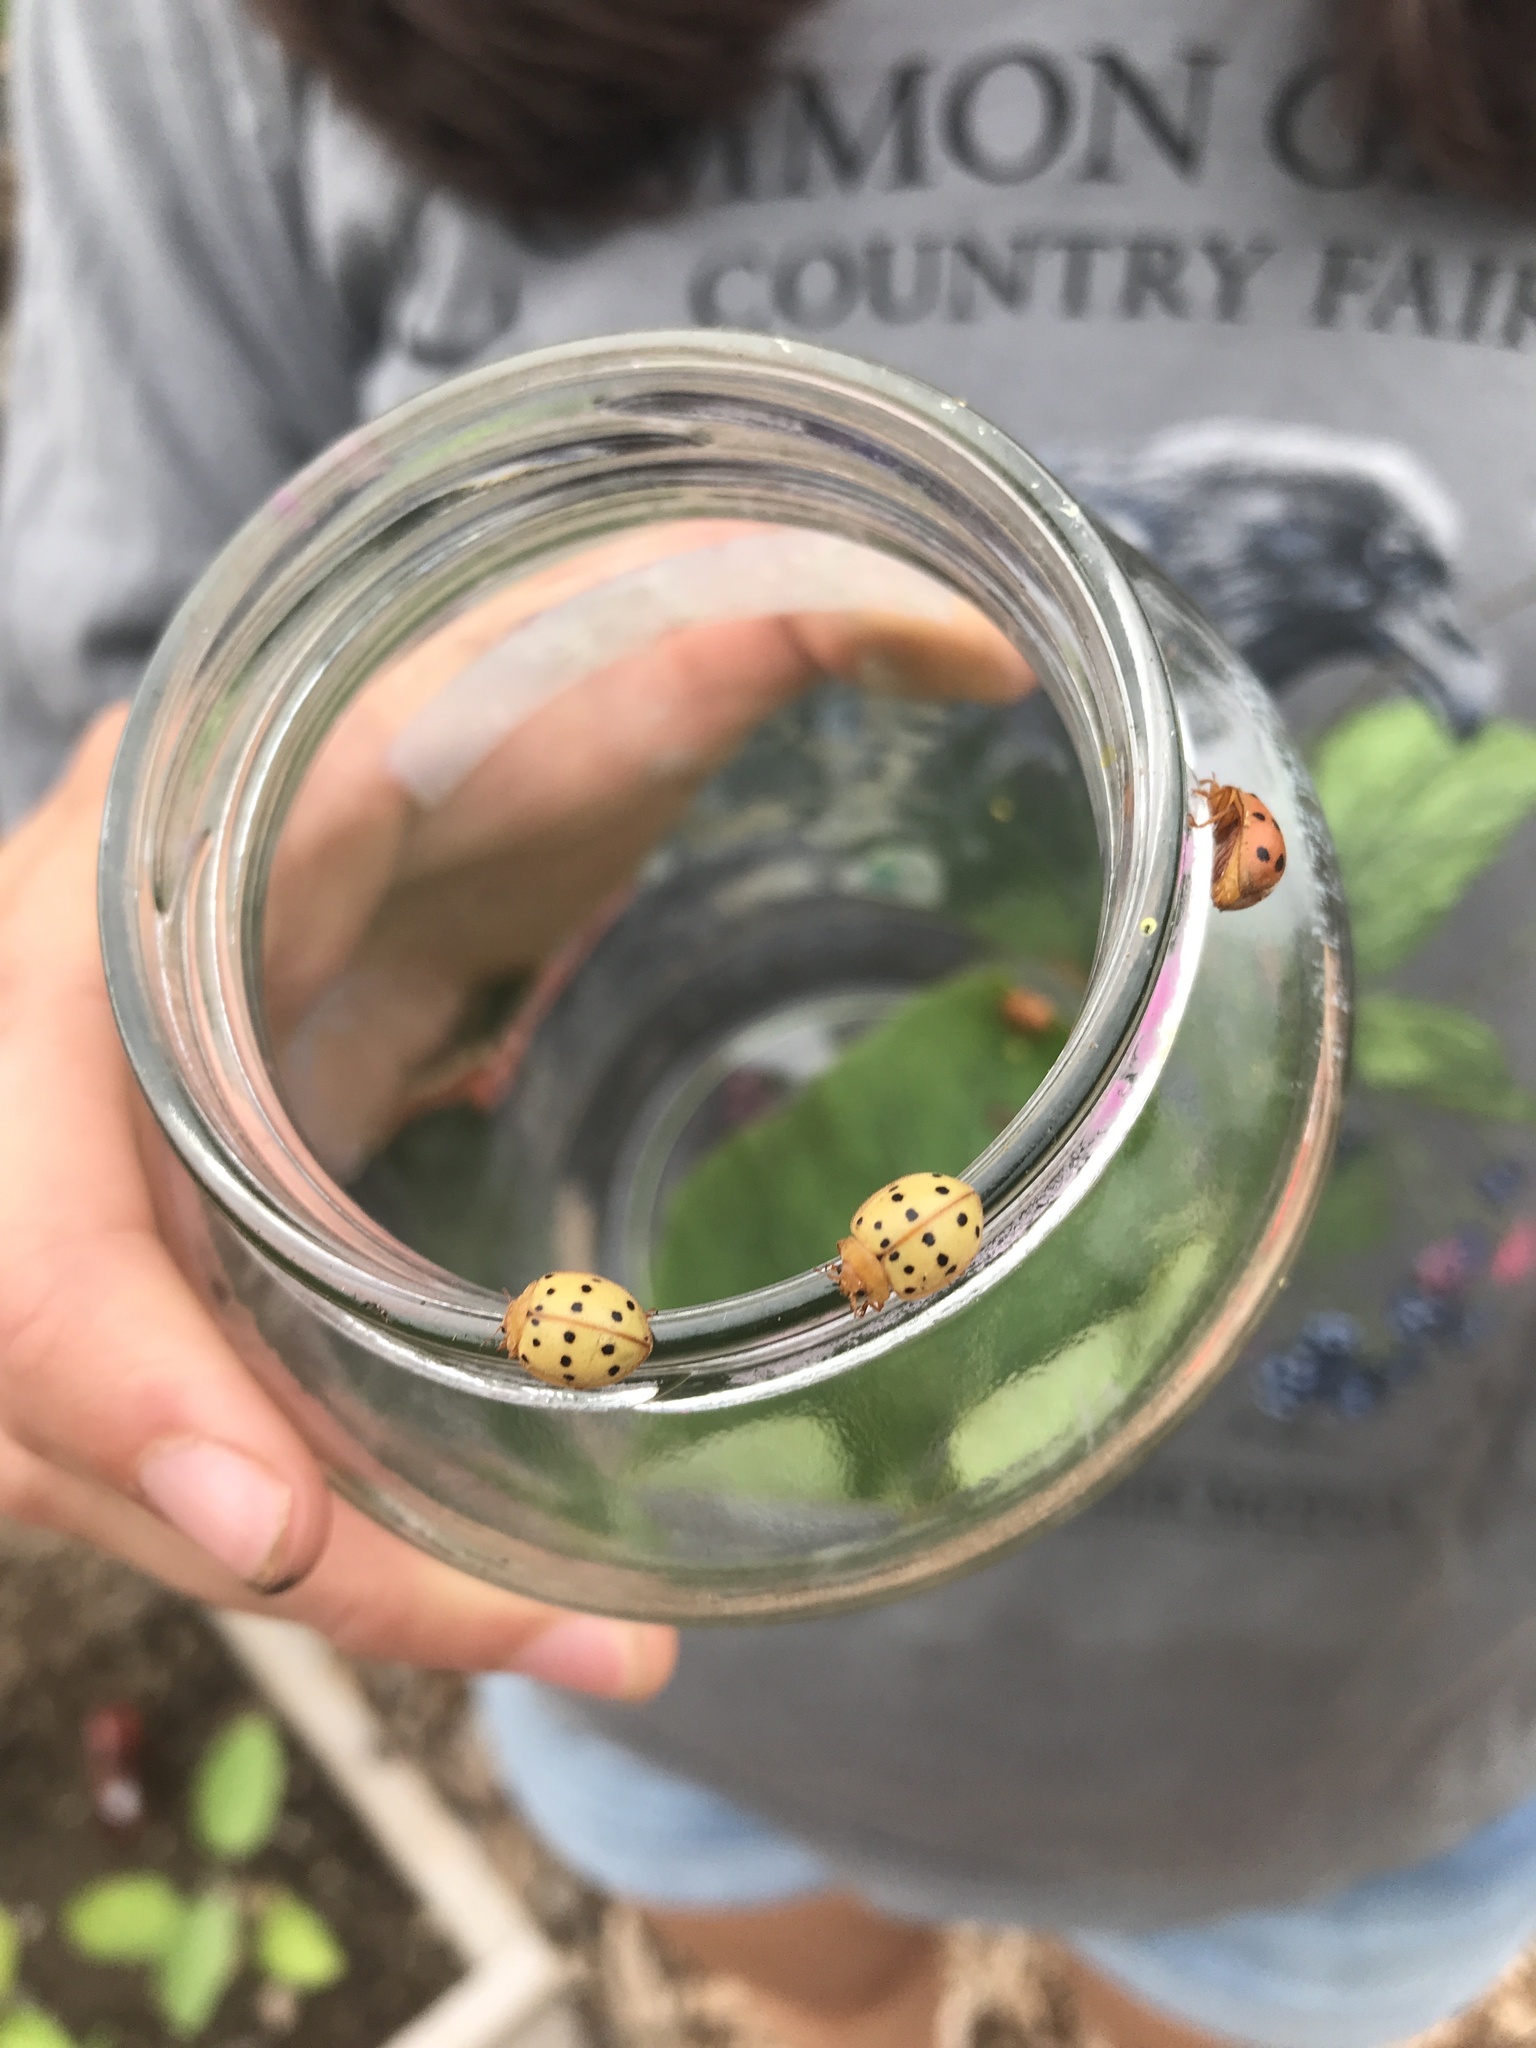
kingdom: Animalia
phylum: Arthropoda
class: Insecta
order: Coleoptera
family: Coccinellidae
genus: Epilachna
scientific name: Epilachna varivestis
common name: Ladybird beetle
